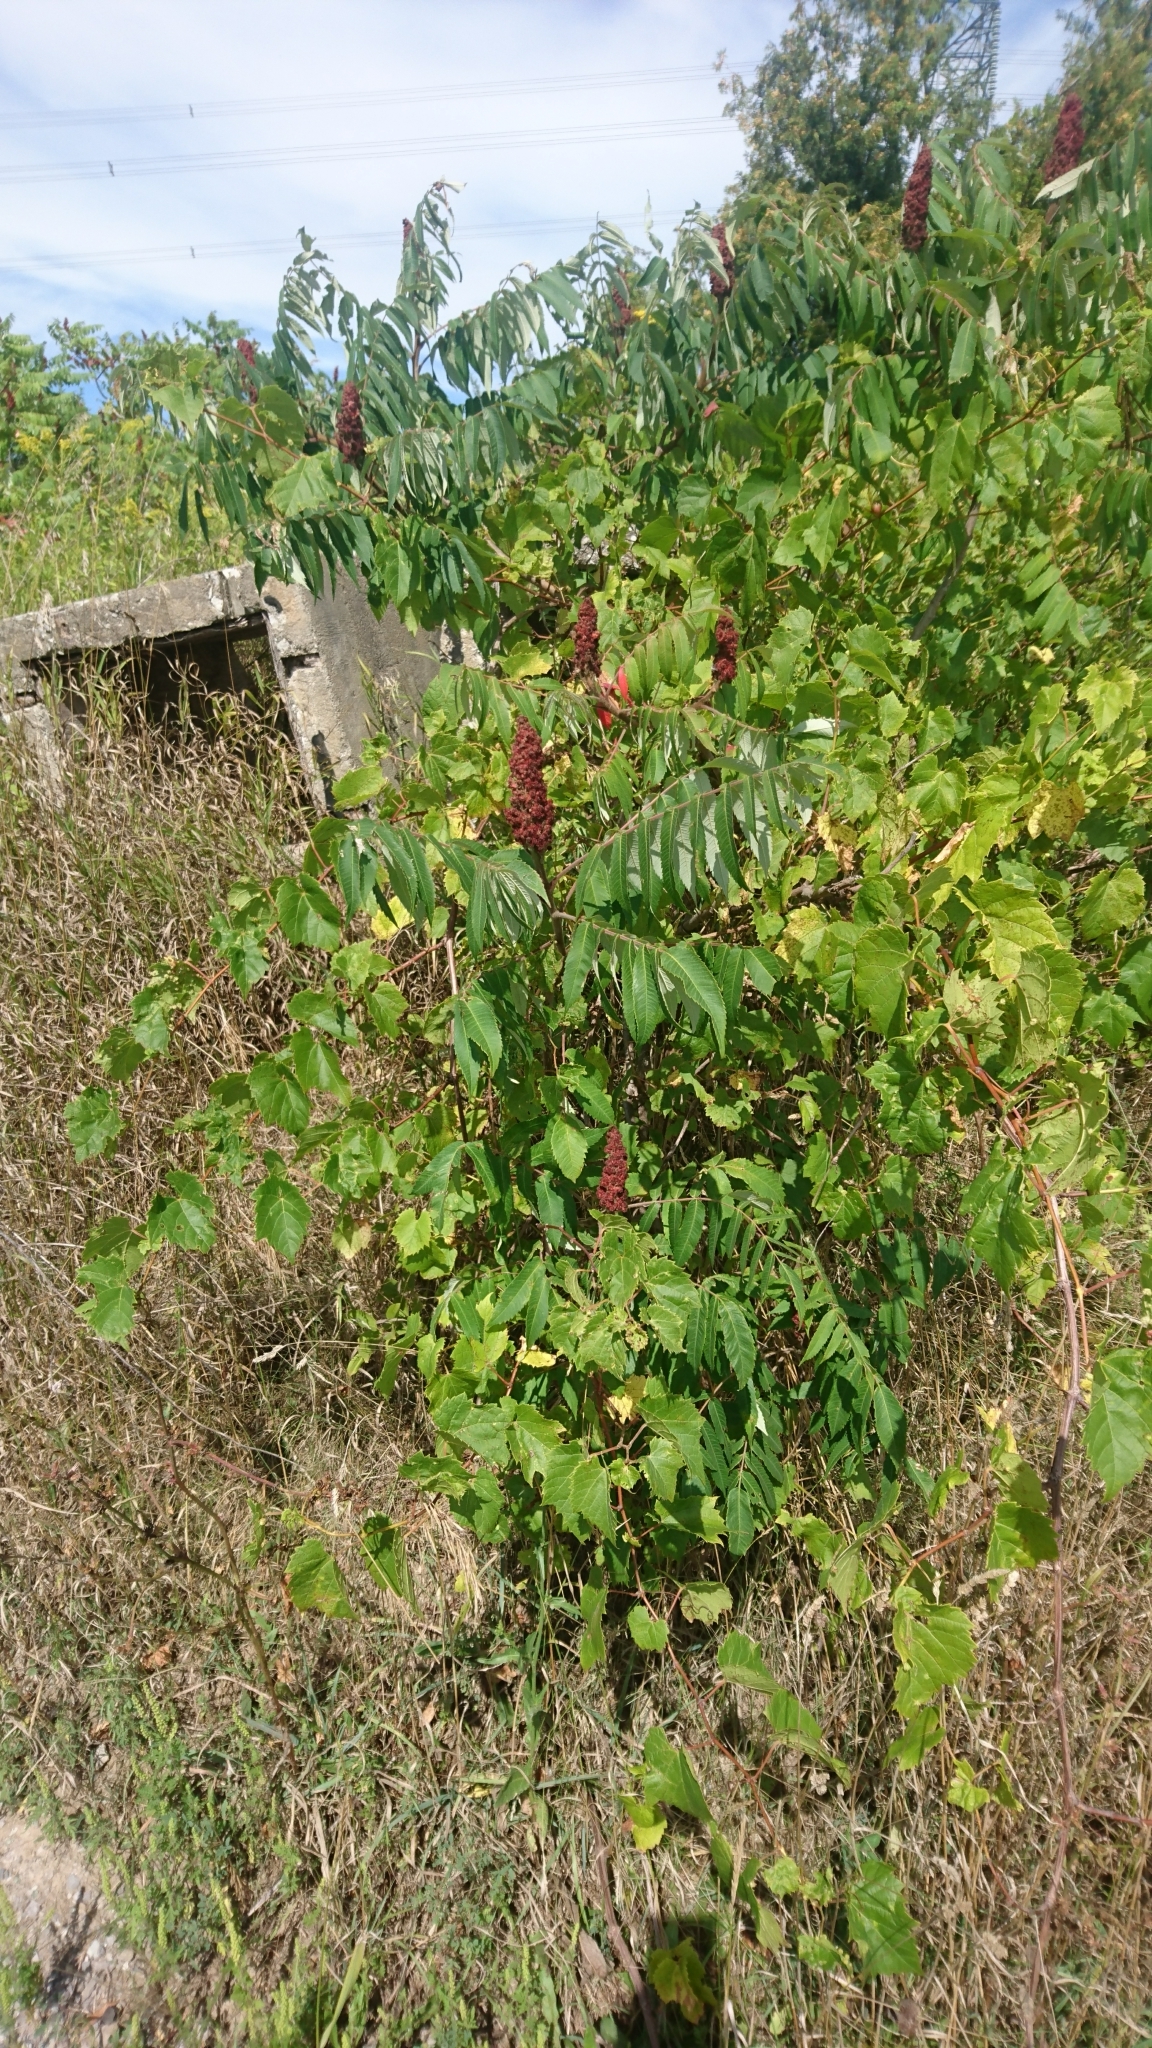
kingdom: Plantae
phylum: Tracheophyta
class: Magnoliopsida
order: Sapindales
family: Anacardiaceae
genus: Rhus
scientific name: Rhus typhina
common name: Staghorn sumac
